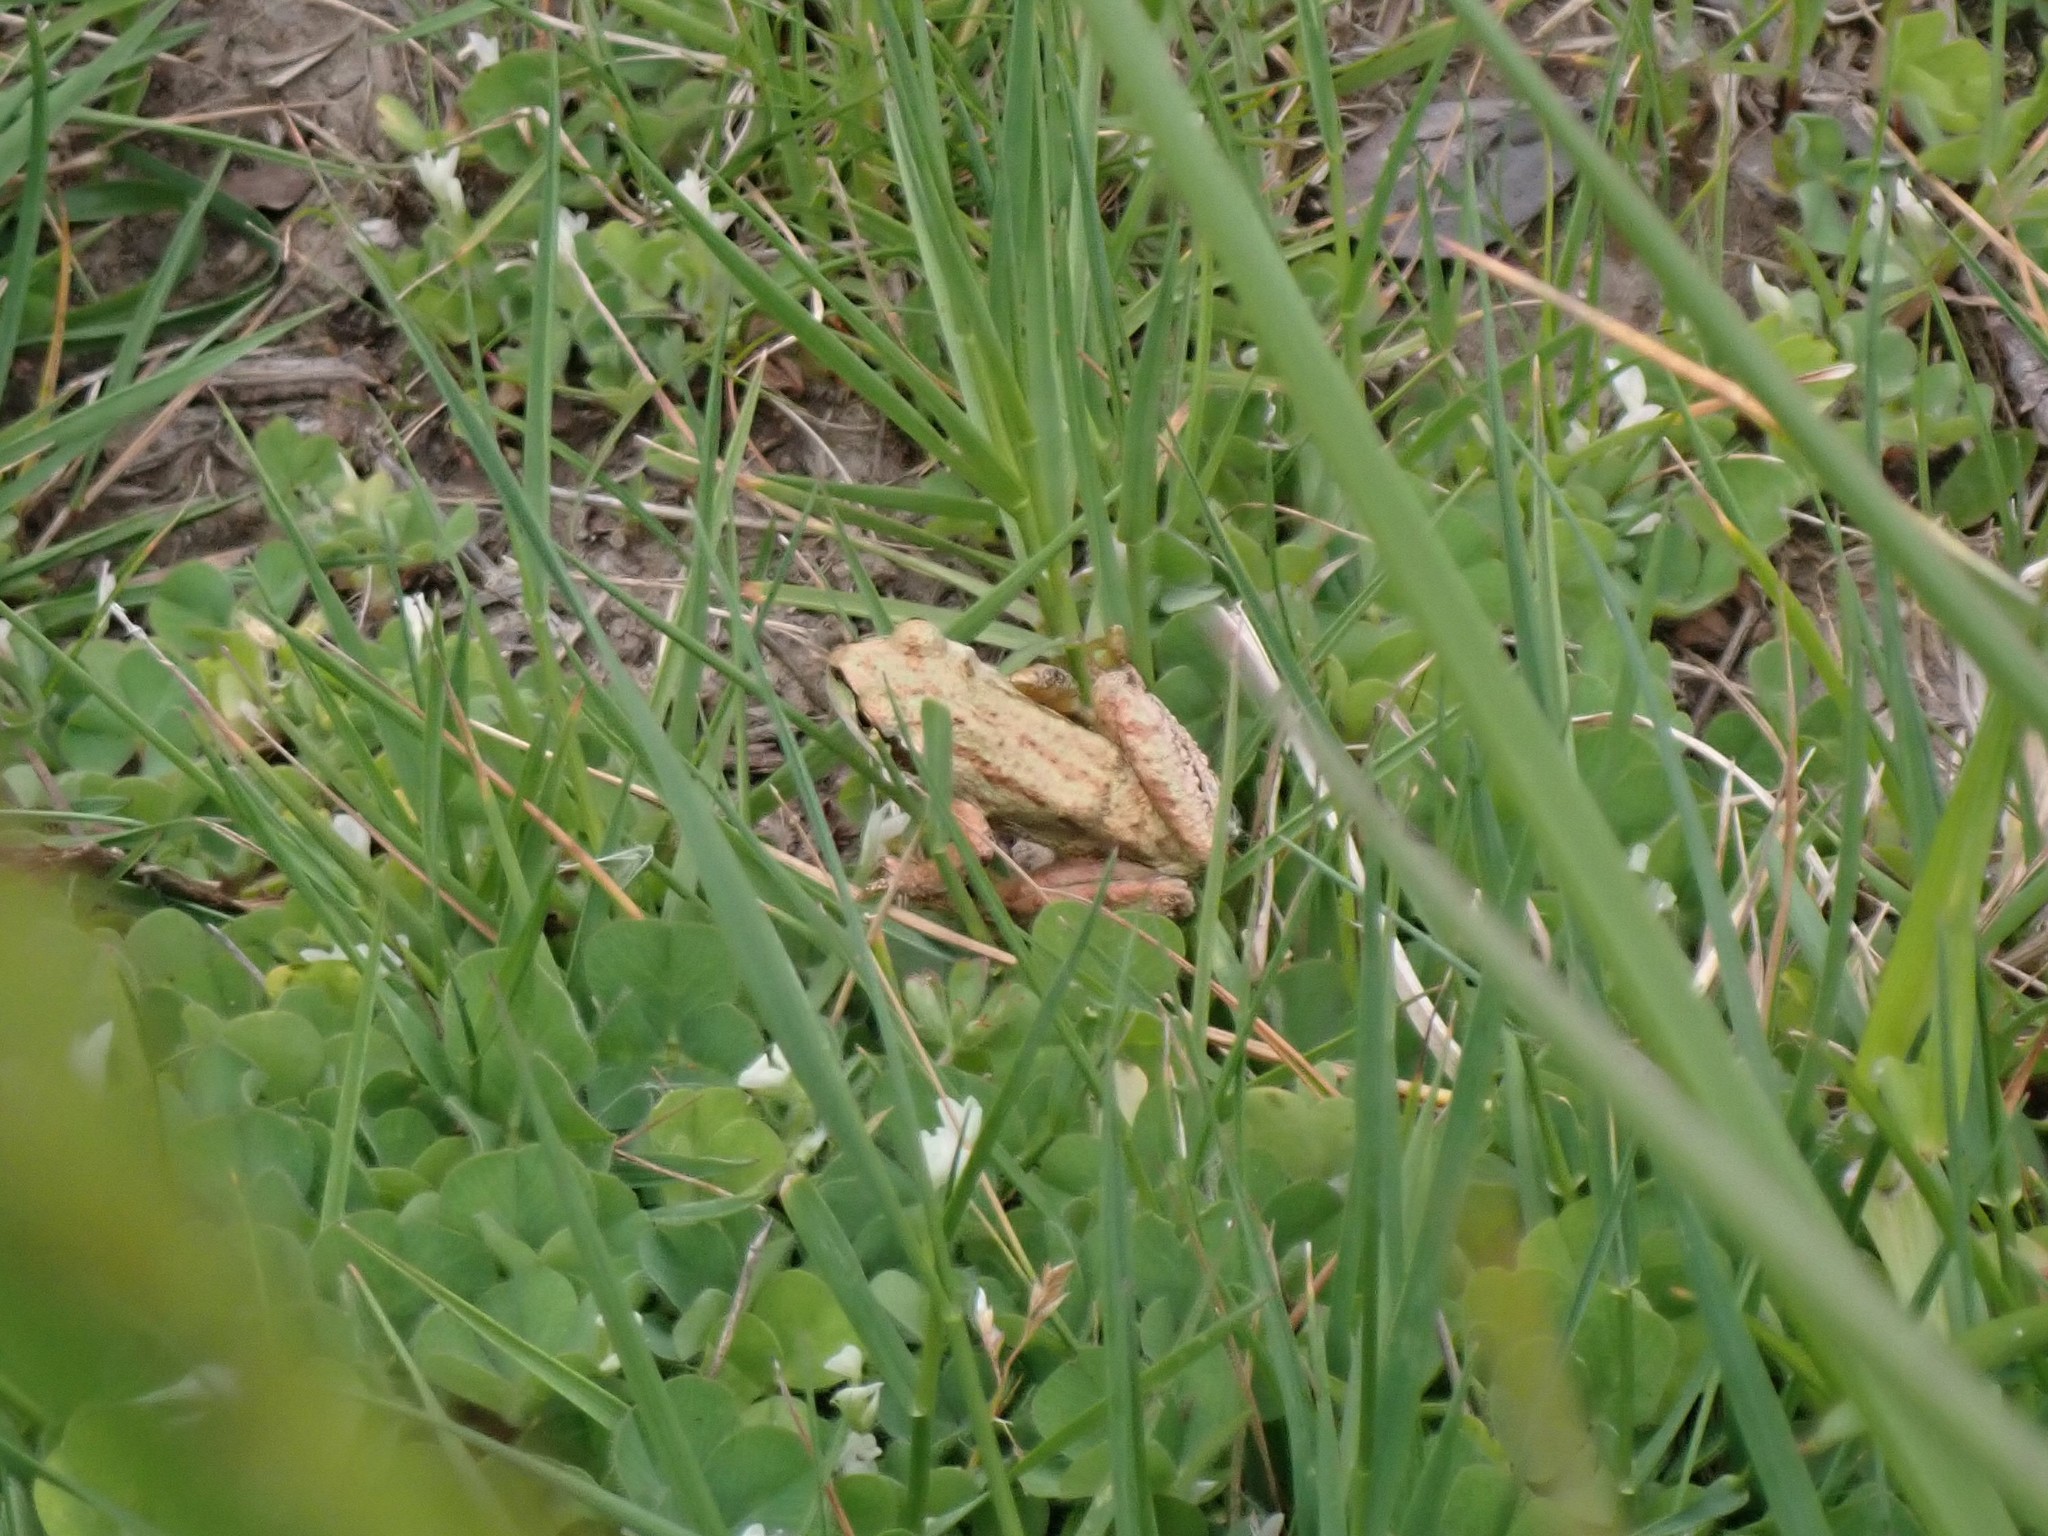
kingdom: Animalia
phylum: Chordata
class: Amphibia
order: Anura
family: Hylidae
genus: Pseudacris
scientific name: Pseudacris regilla
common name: Pacific chorus frog
